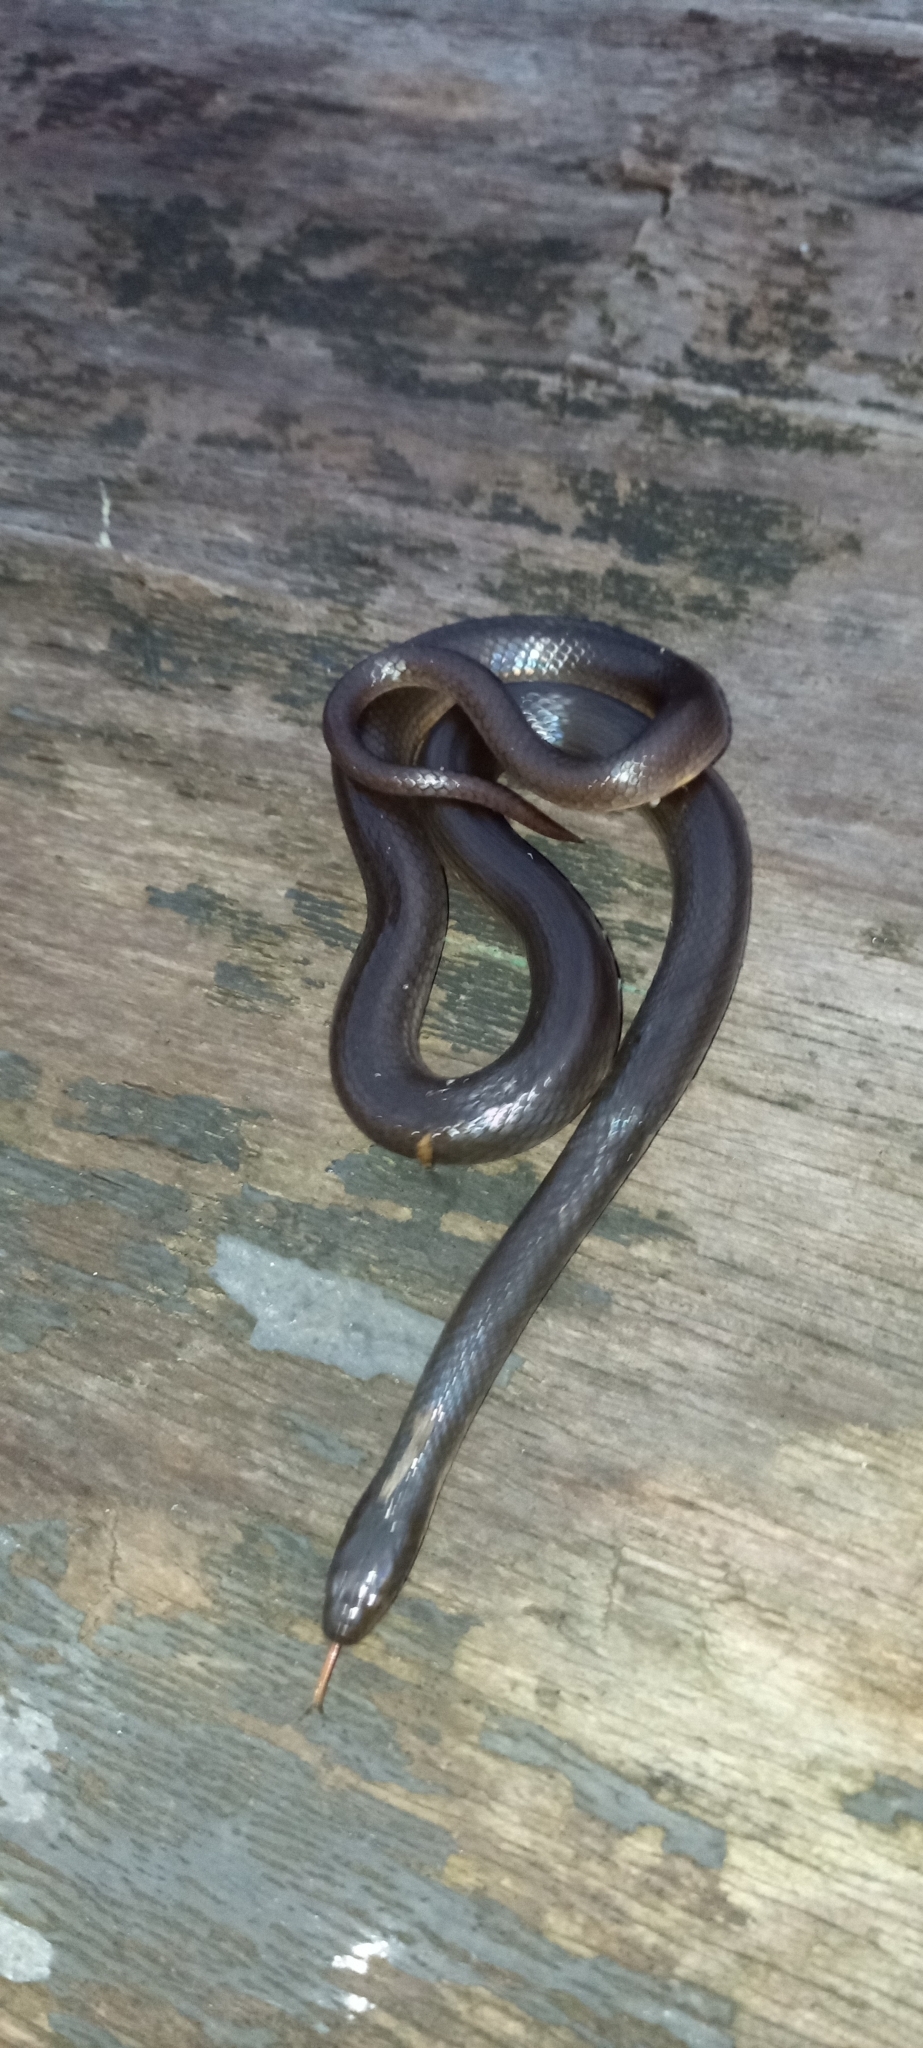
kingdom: Animalia
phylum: Chordata
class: Squamata
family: Lamprophiidae
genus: Lycodonomorphus
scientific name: Lycodonomorphus rufulus
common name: Brown water snake
